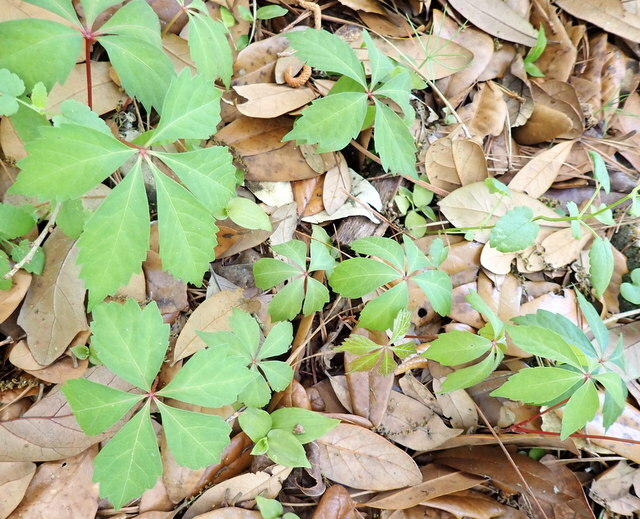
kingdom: Plantae
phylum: Tracheophyta
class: Magnoliopsida
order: Vitales
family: Vitaceae
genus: Parthenocissus
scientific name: Parthenocissus quinquefolia
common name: Virginia-creeper
